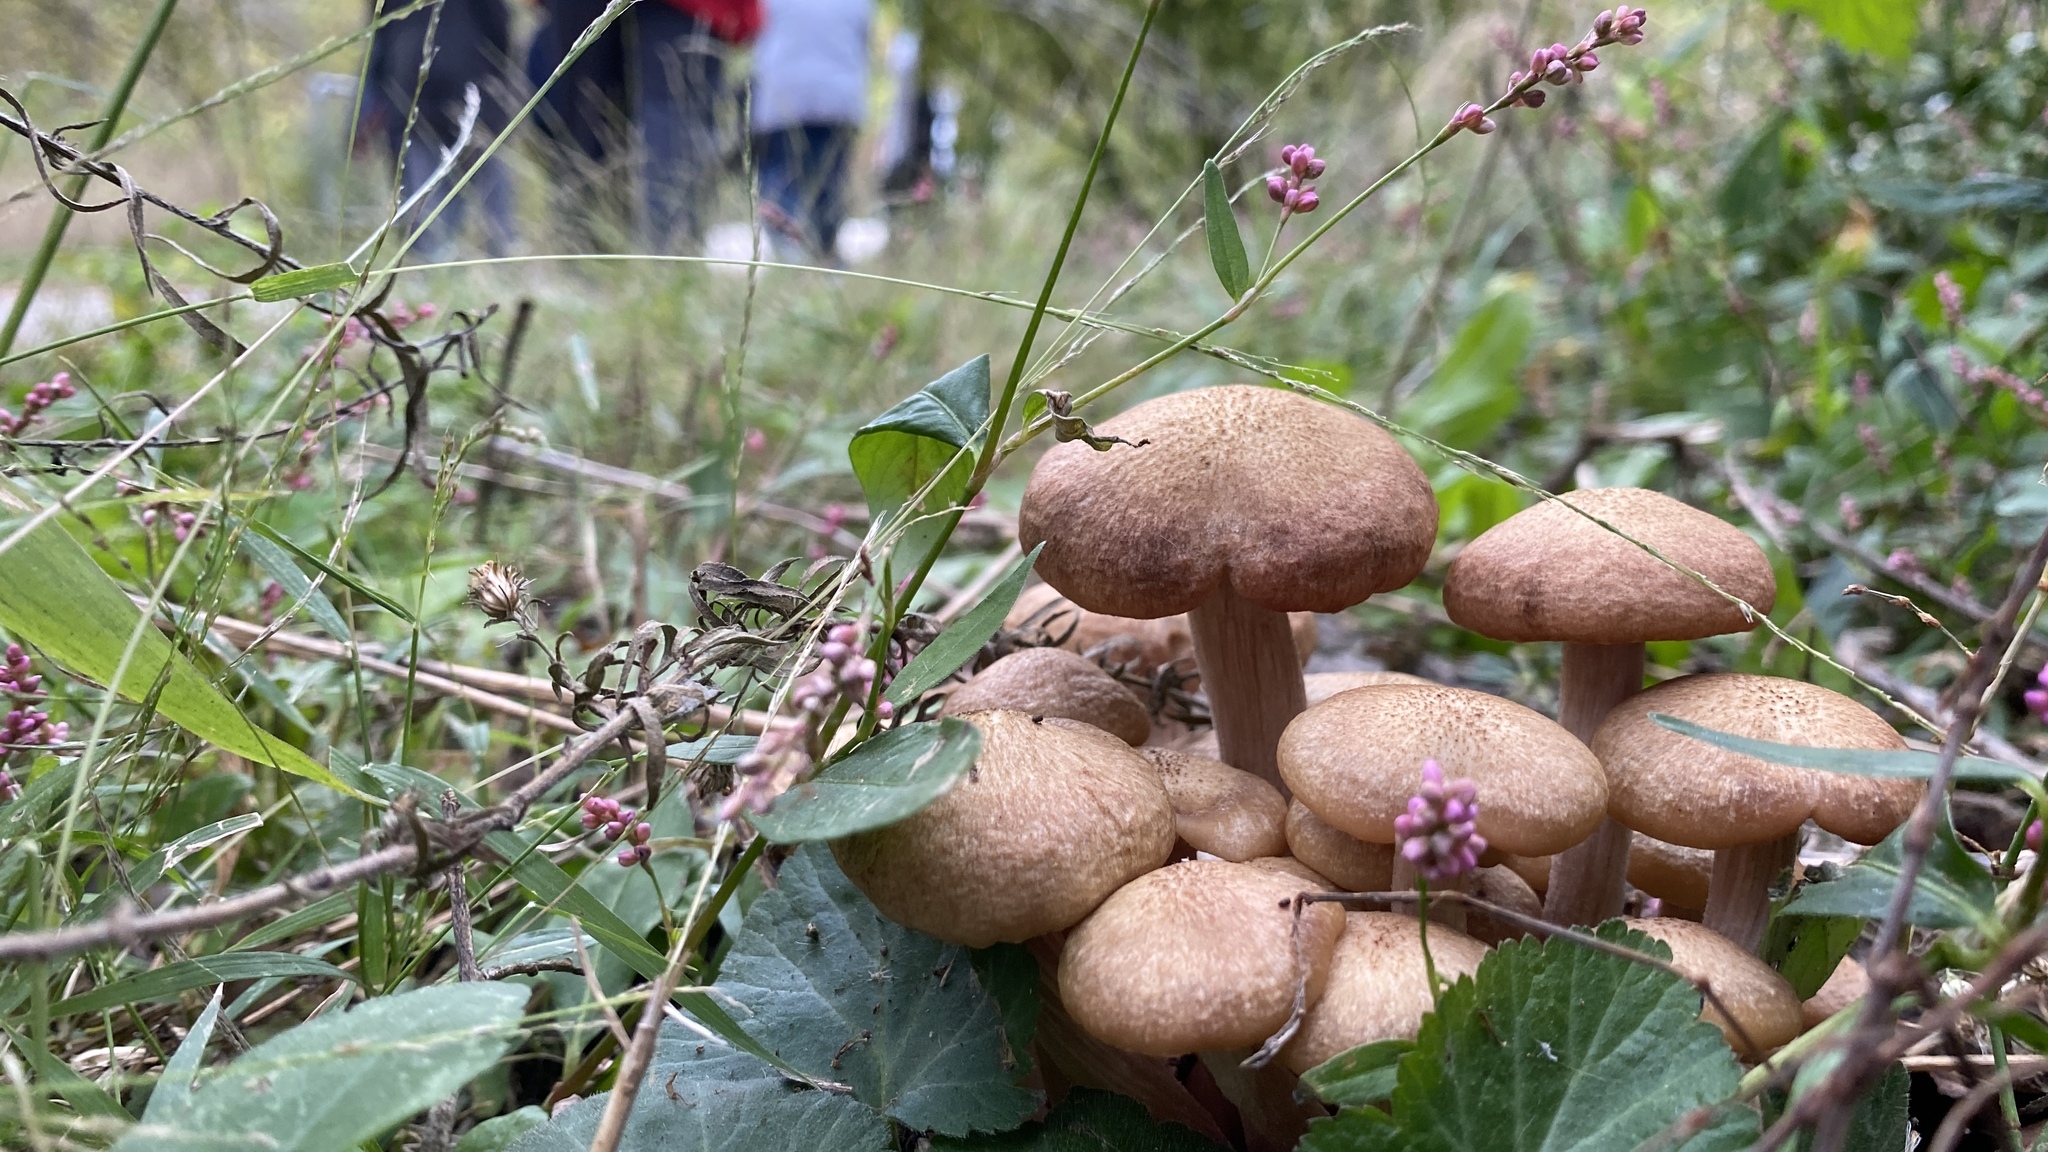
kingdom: Fungi
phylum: Basidiomycota
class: Agaricomycetes
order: Agaricales
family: Physalacriaceae
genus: Desarmillaria
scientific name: Desarmillaria caespitosa
